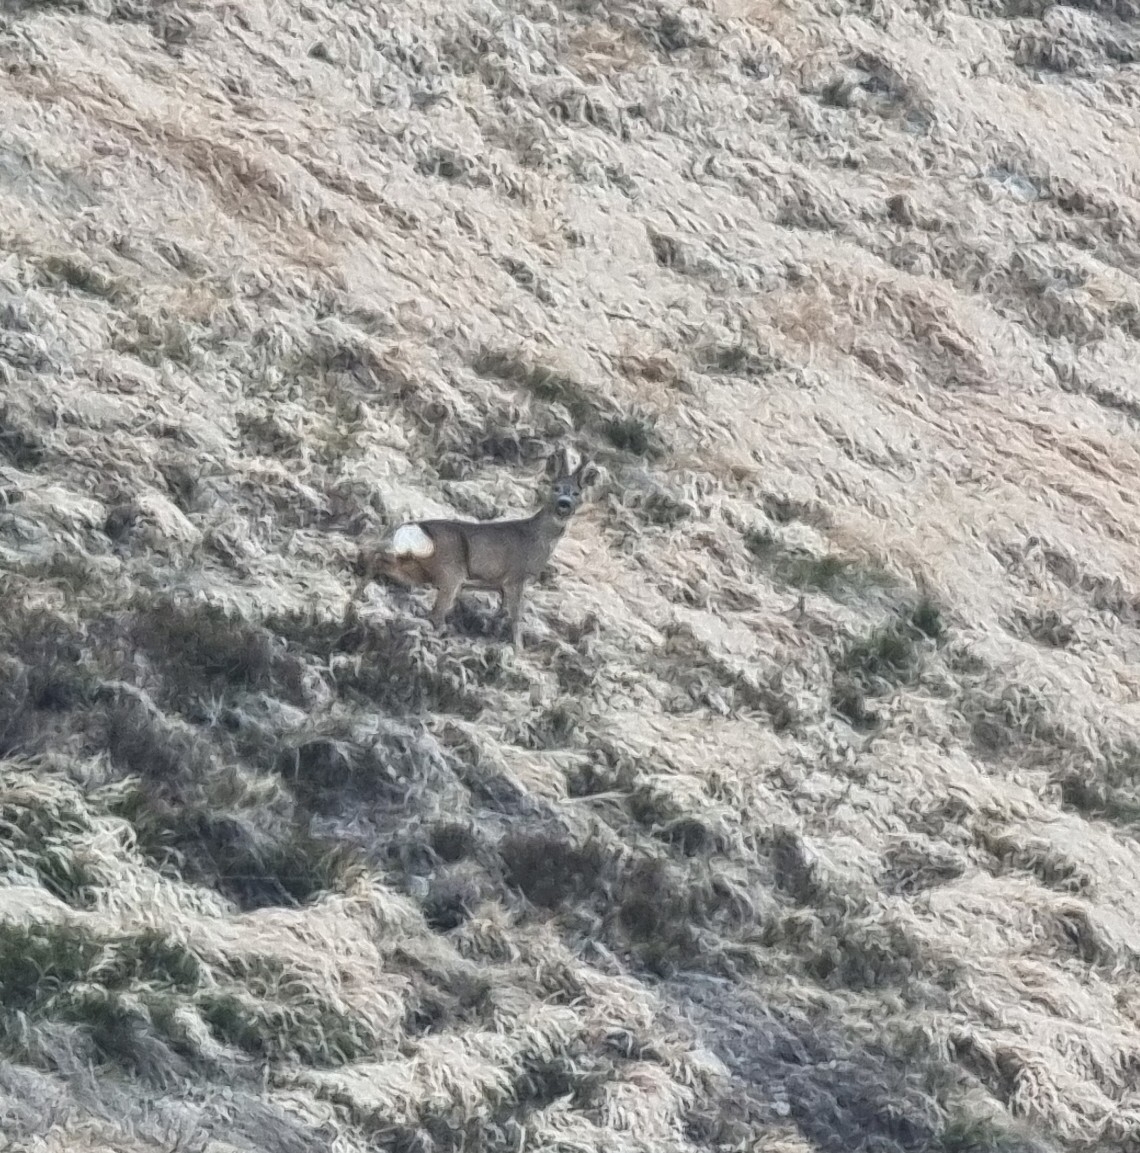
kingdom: Animalia
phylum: Chordata
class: Mammalia
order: Artiodactyla
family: Cervidae
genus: Capreolus
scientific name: Capreolus capreolus
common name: Western roe deer
